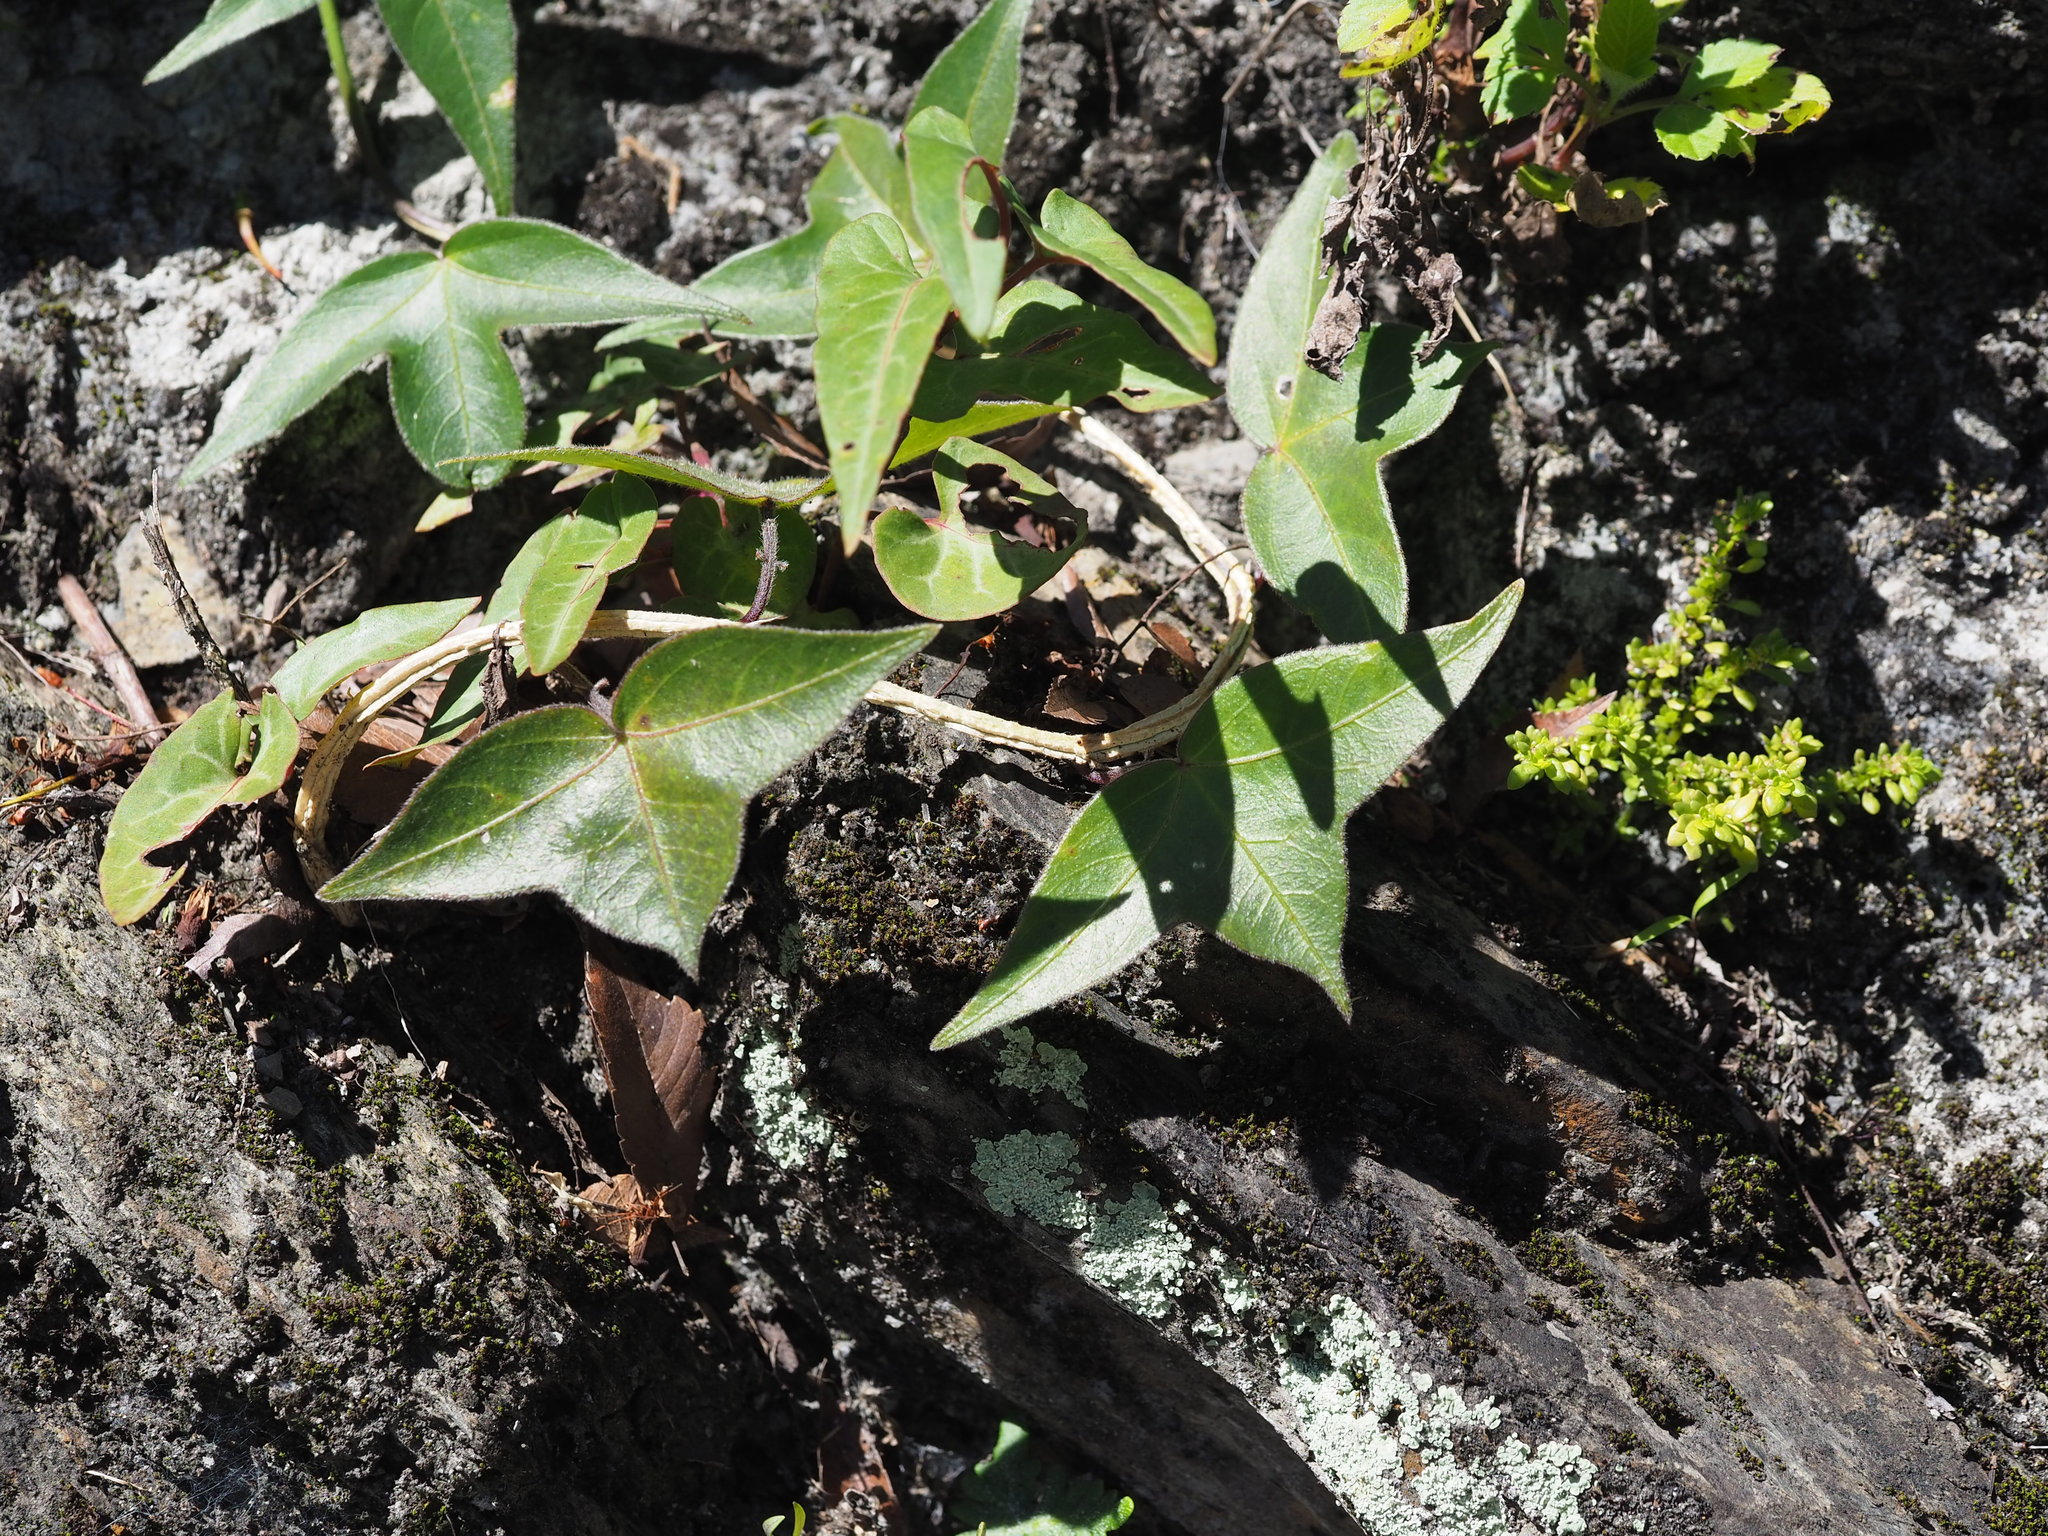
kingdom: Plantae
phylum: Tracheophyta
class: Magnoliopsida
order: Malpighiales
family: Passifloraceae
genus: Passiflora
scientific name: Passiflora suberosa
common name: Wild passionfruit
